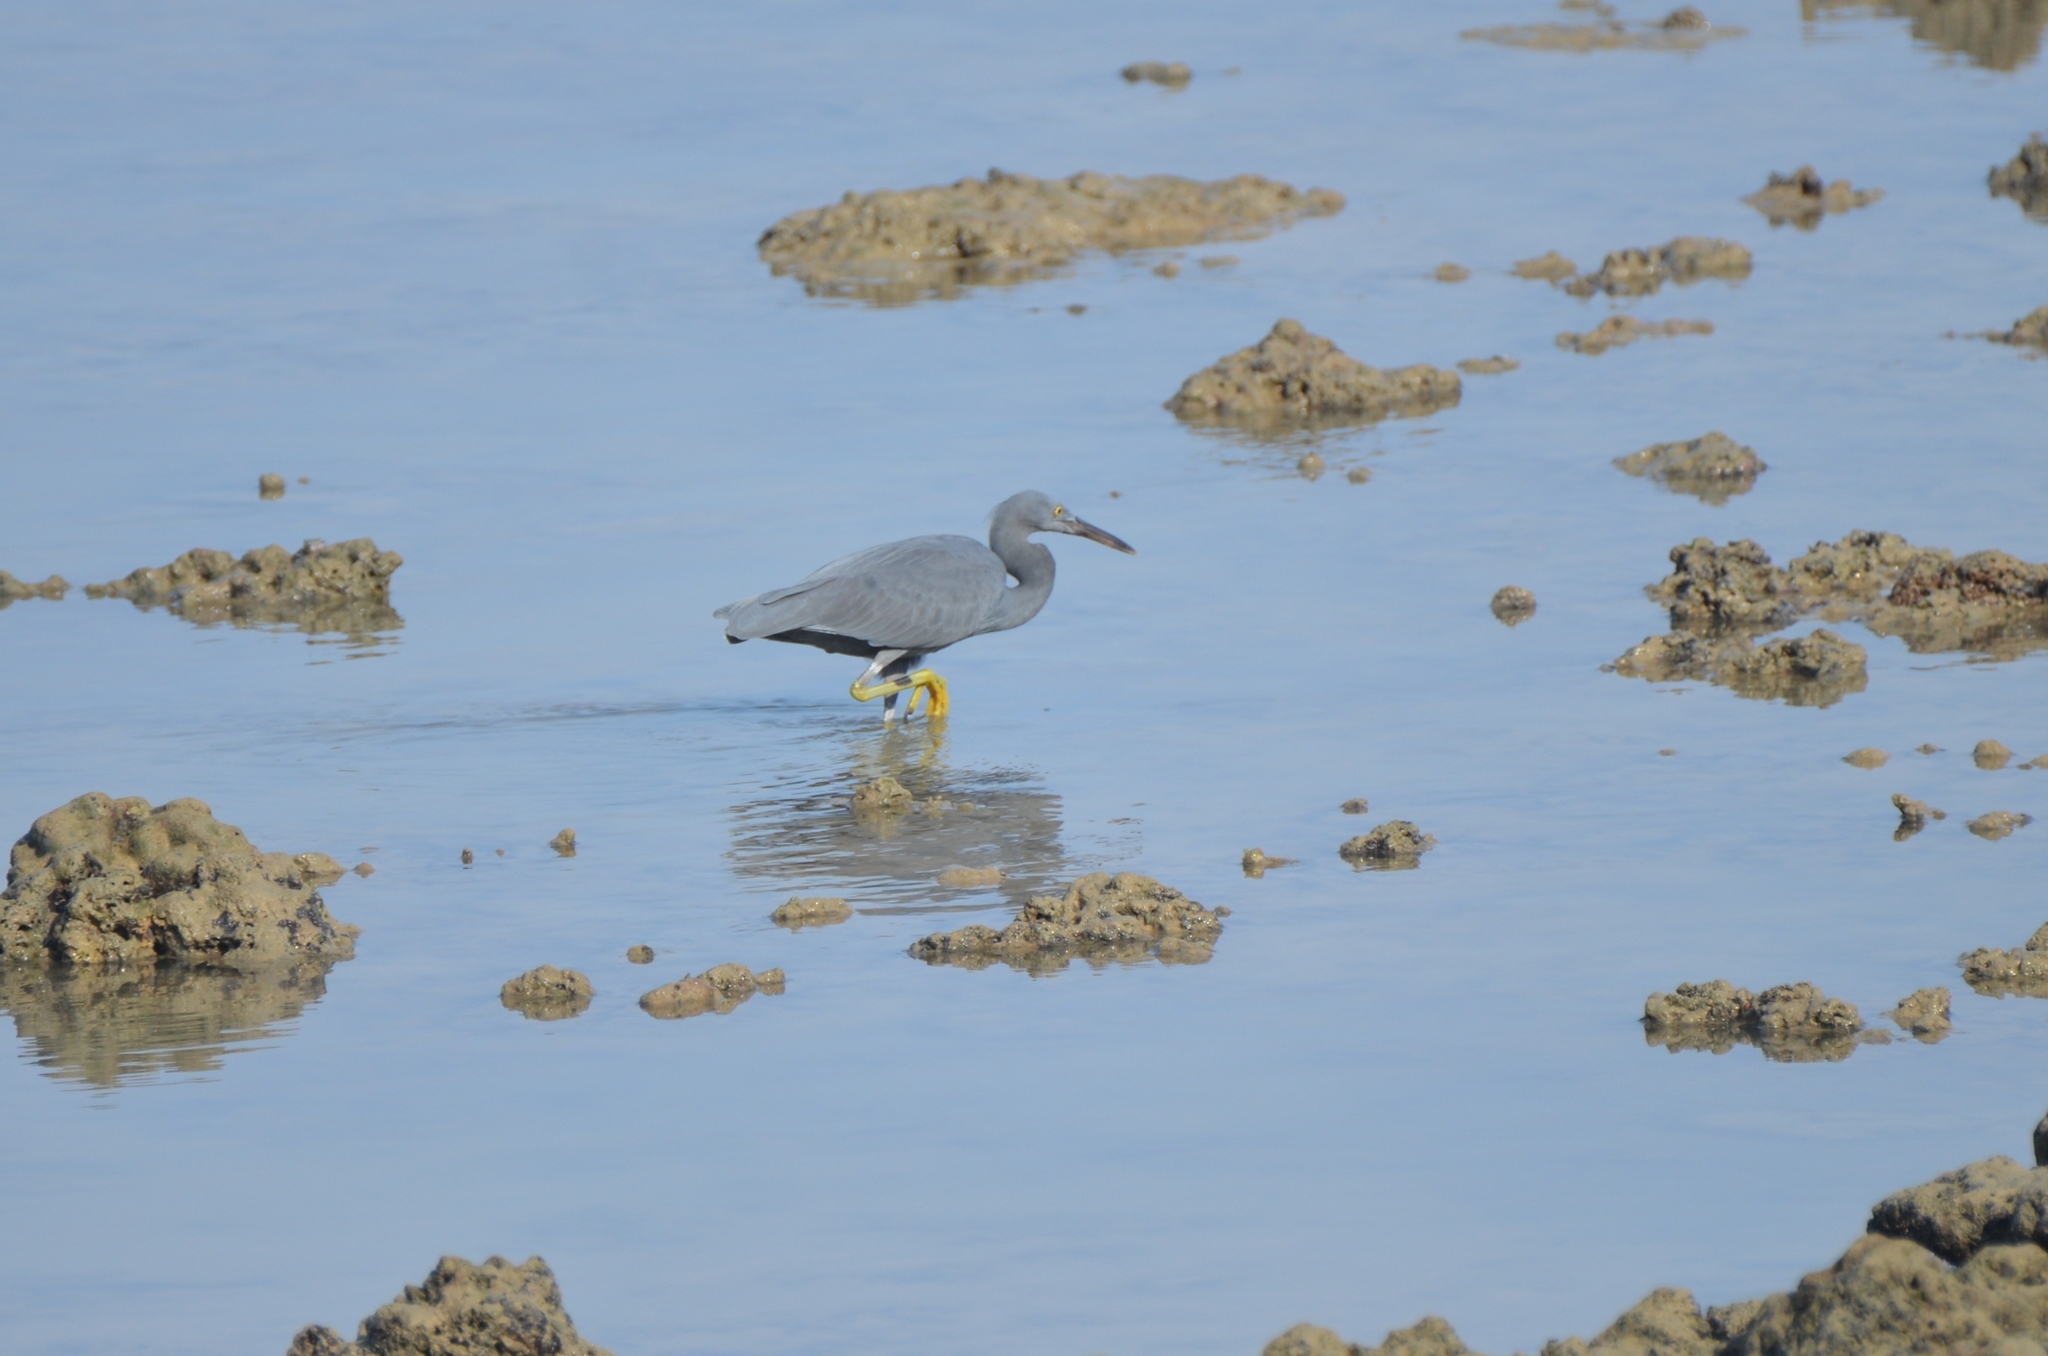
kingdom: Animalia
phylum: Chordata
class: Aves
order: Pelecaniformes
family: Ardeidae
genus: Egretta
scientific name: Egretta sacra
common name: Pacific reef heron
